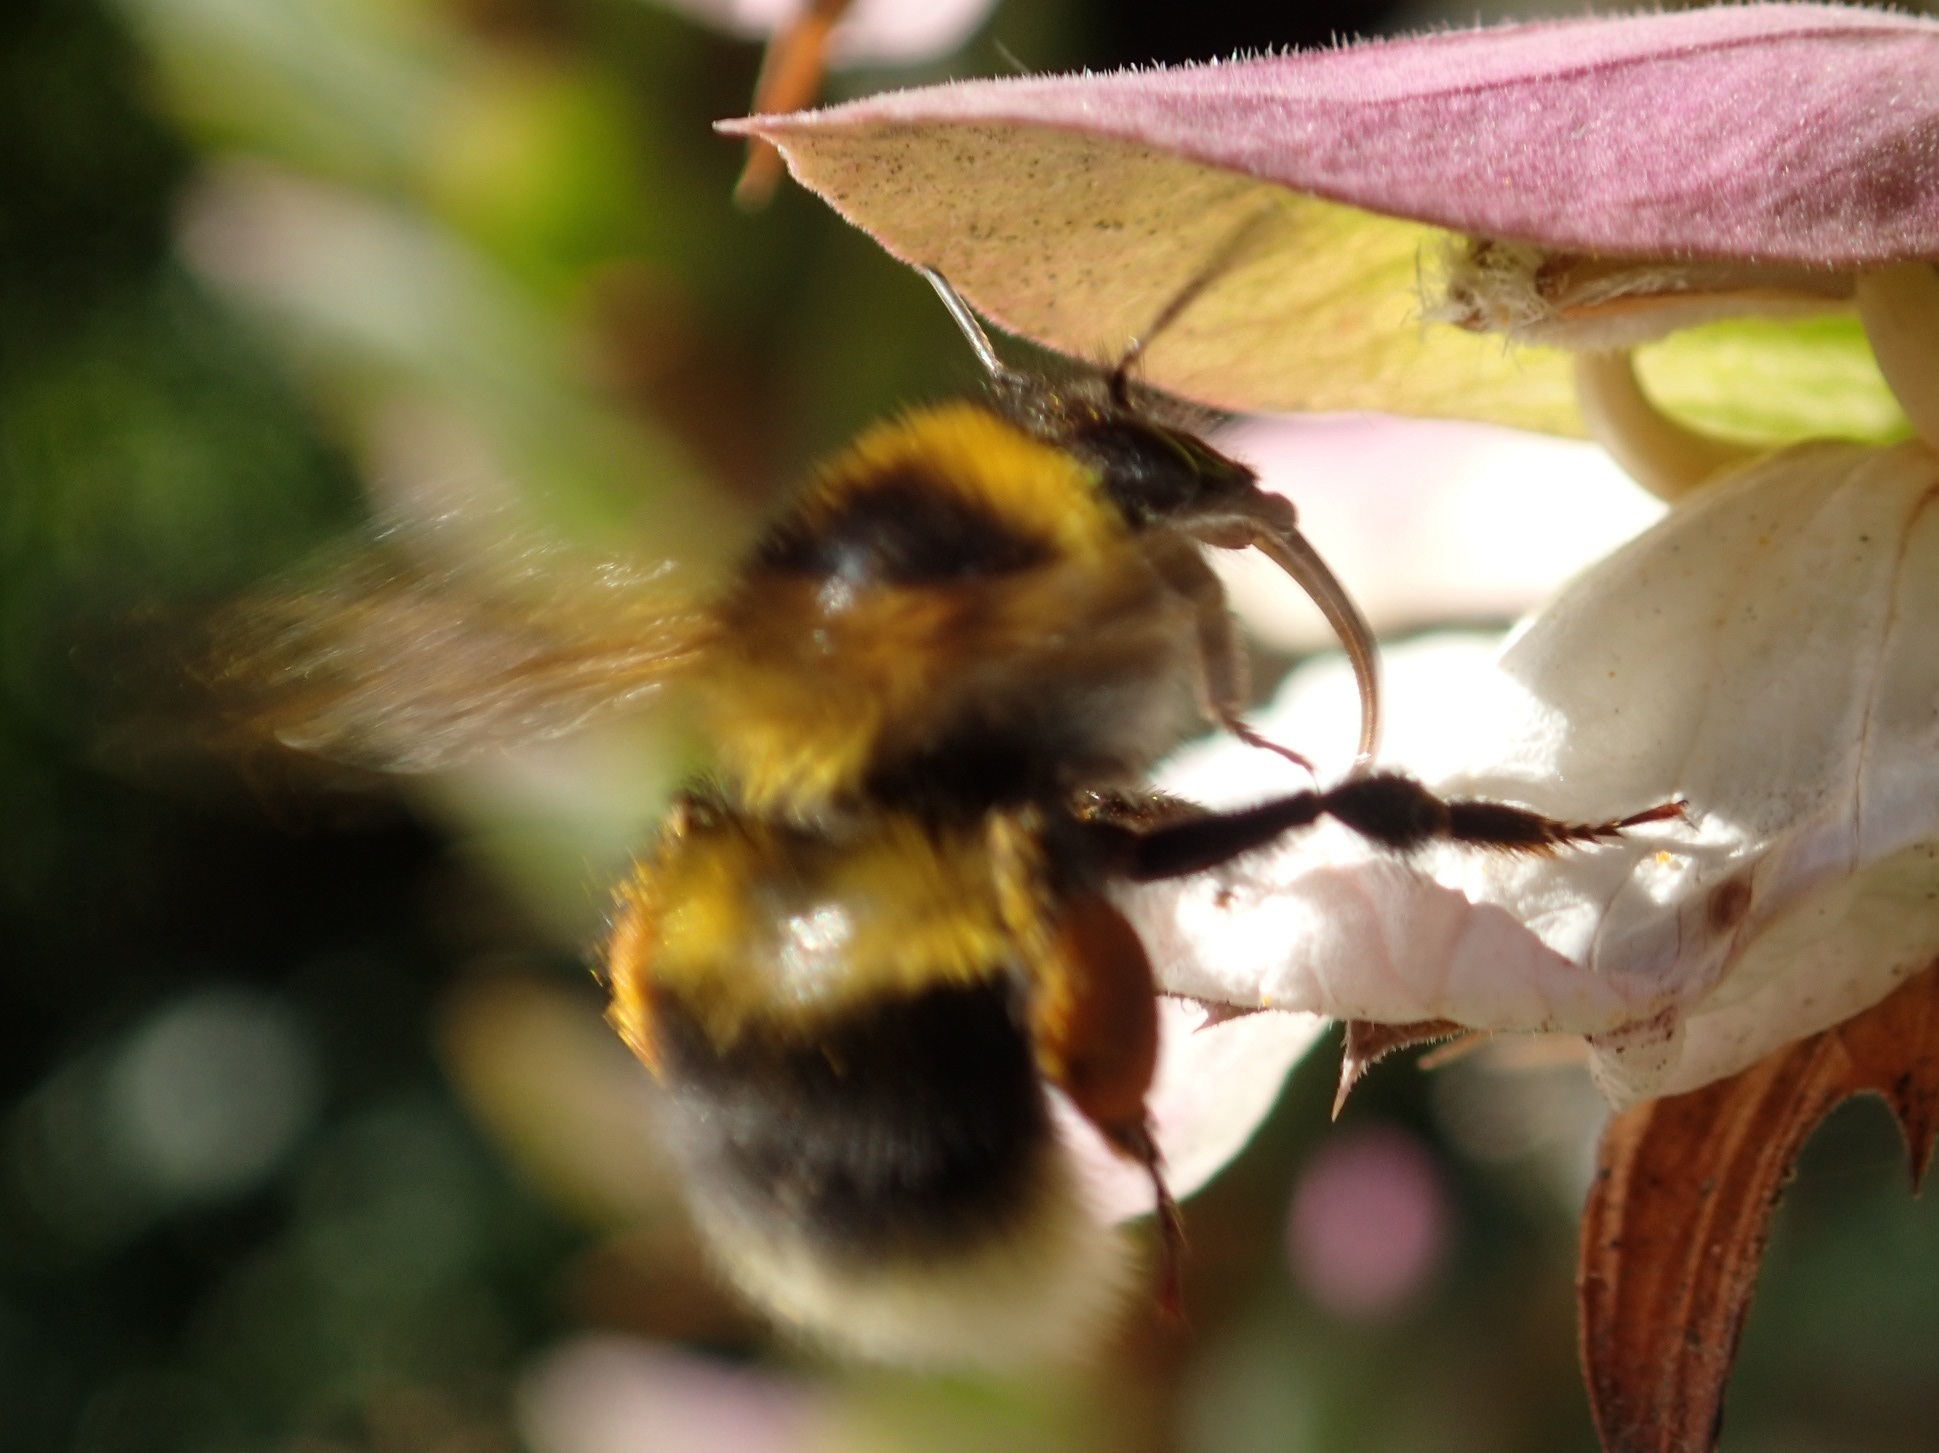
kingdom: Animalia
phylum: Arthropoda
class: Insecta
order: Hymenoptera
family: Apidae
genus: Bombus
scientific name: Bombus ruderatus
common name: Large garden bumblebee
